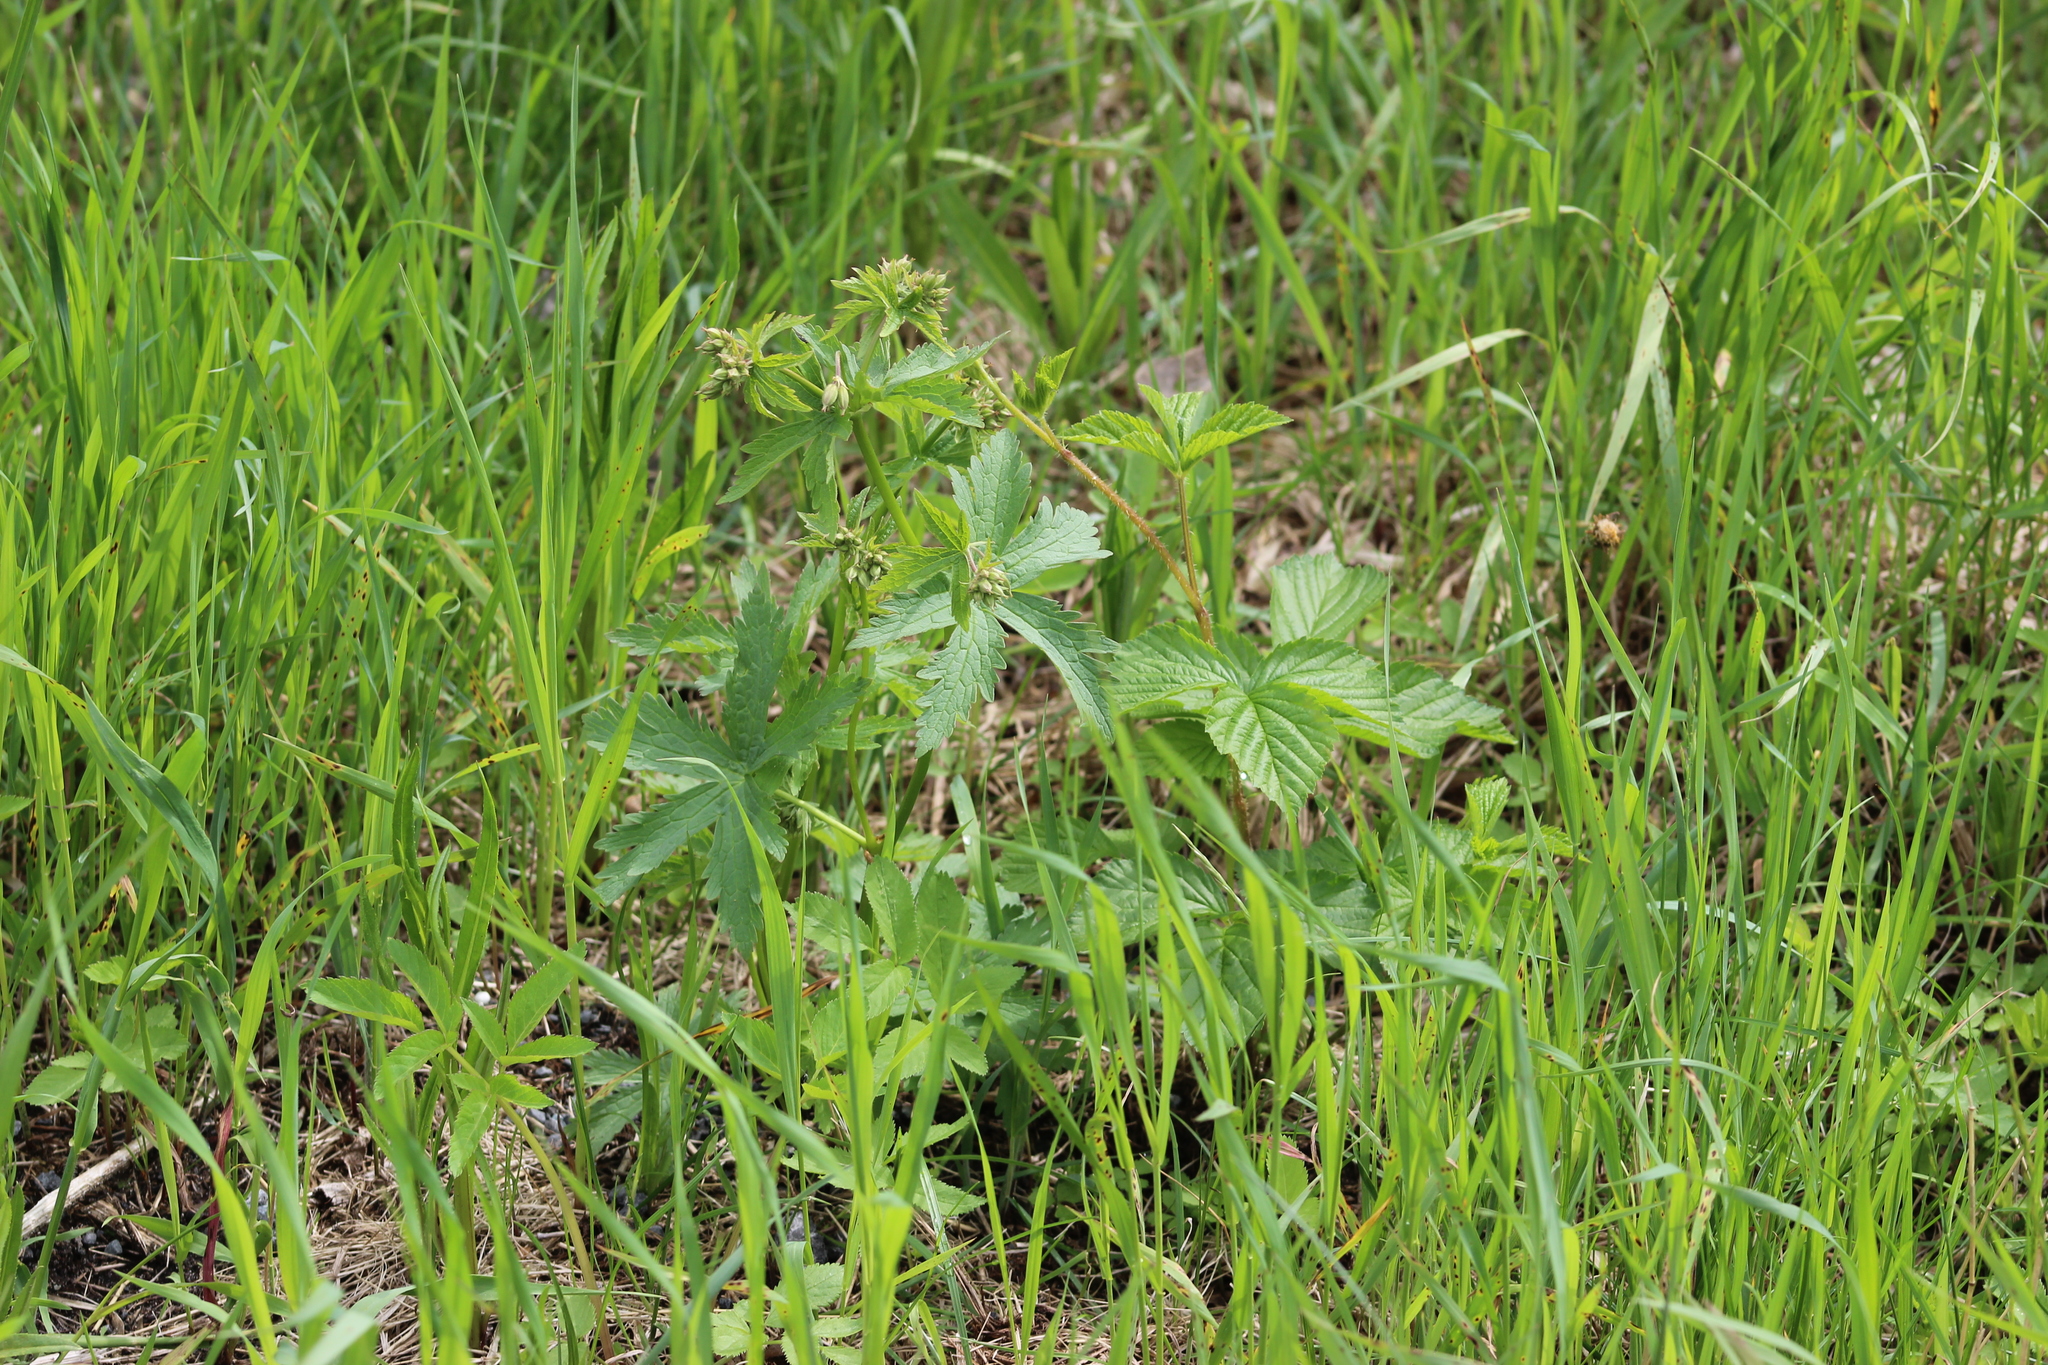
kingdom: Plantae
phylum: Tracheophyta
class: Magnoliopsida
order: Geraniales
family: Geraniaceae
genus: Geranium
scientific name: Geranium sylvaticum
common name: Wood crane's-bill
